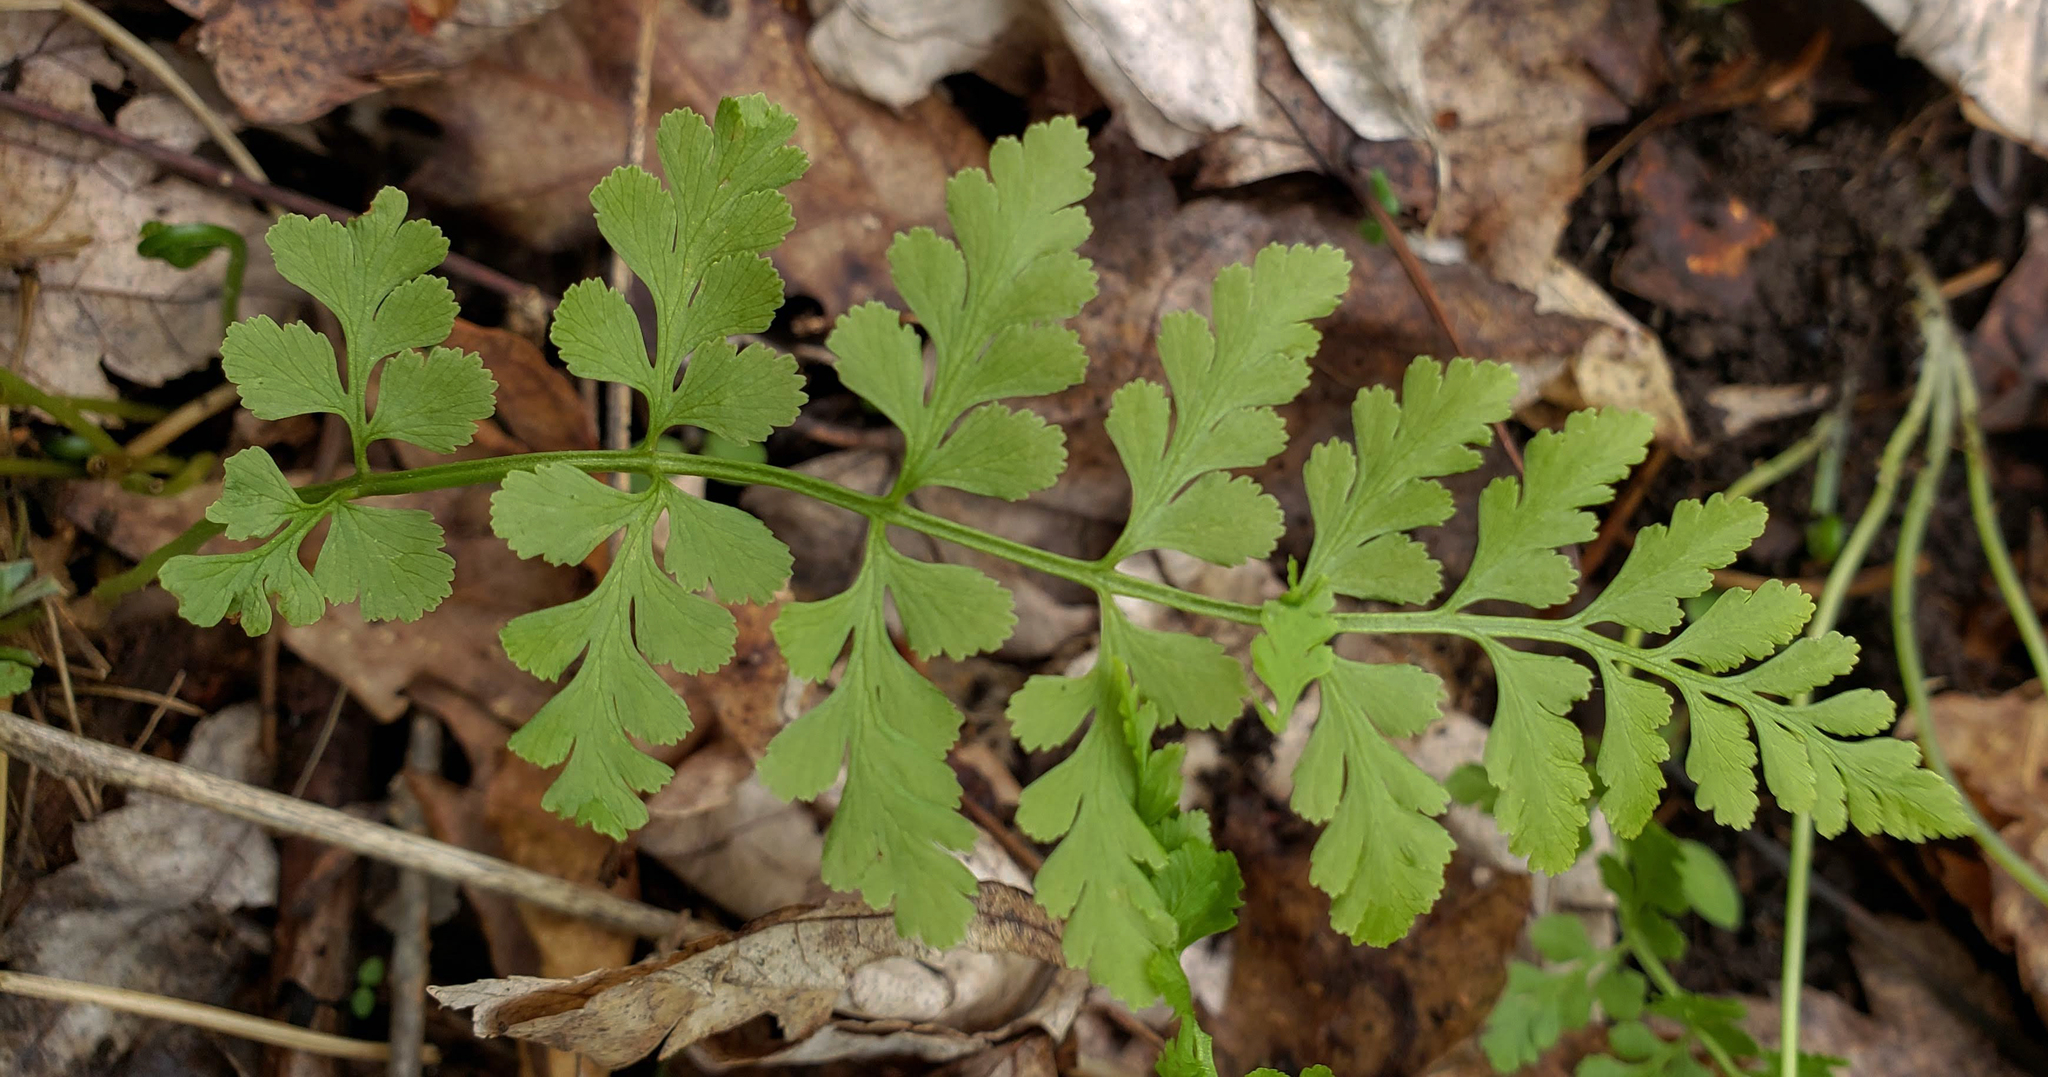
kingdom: Plantae
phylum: Tracheophyta
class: Polypodiopsida
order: Polypodiales
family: Cystopteridaceae
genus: Cystopteris
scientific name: Cystopteris tenuis
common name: Mackay's brittle fern
